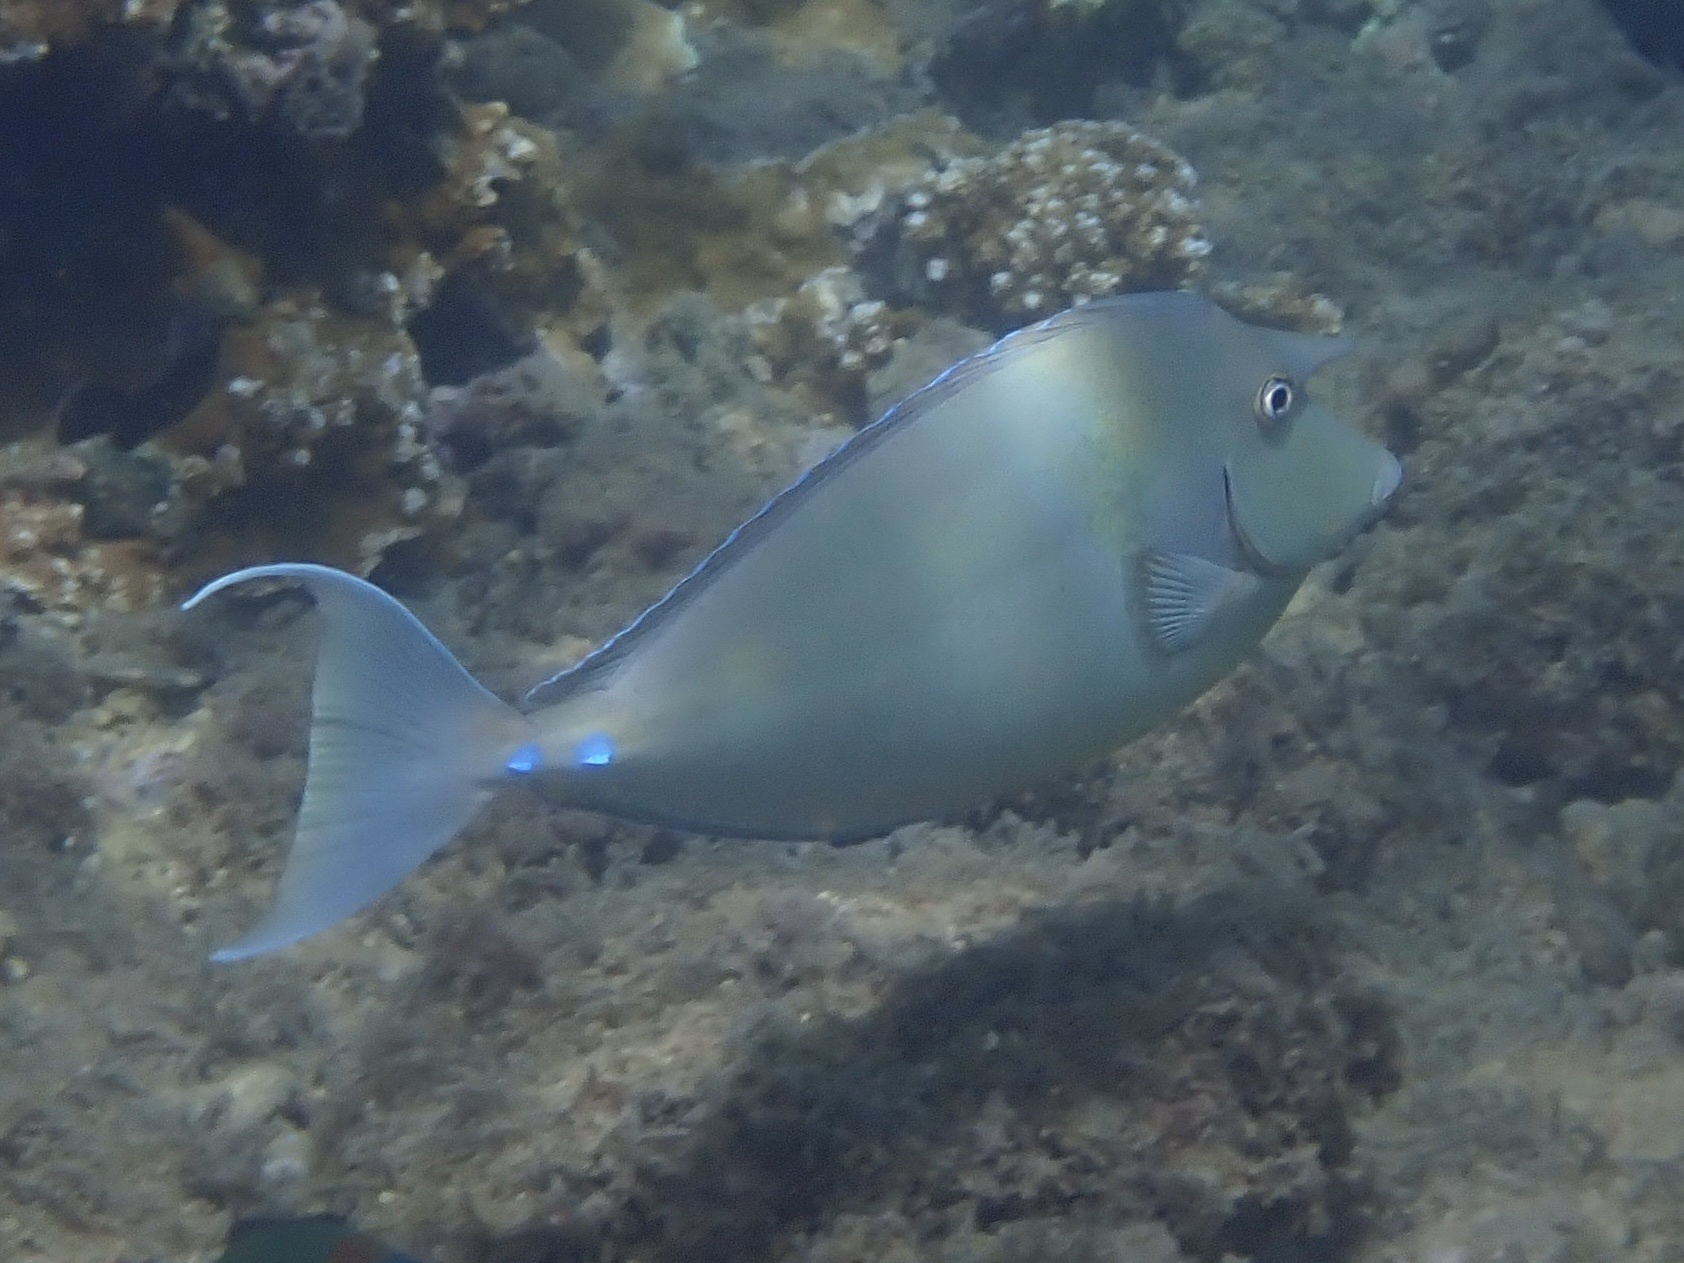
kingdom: Animalia
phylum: Chordata
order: Perciformes
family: Acanthuridae
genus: Naso
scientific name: Naso unicornis
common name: Bluespine unicornfish
